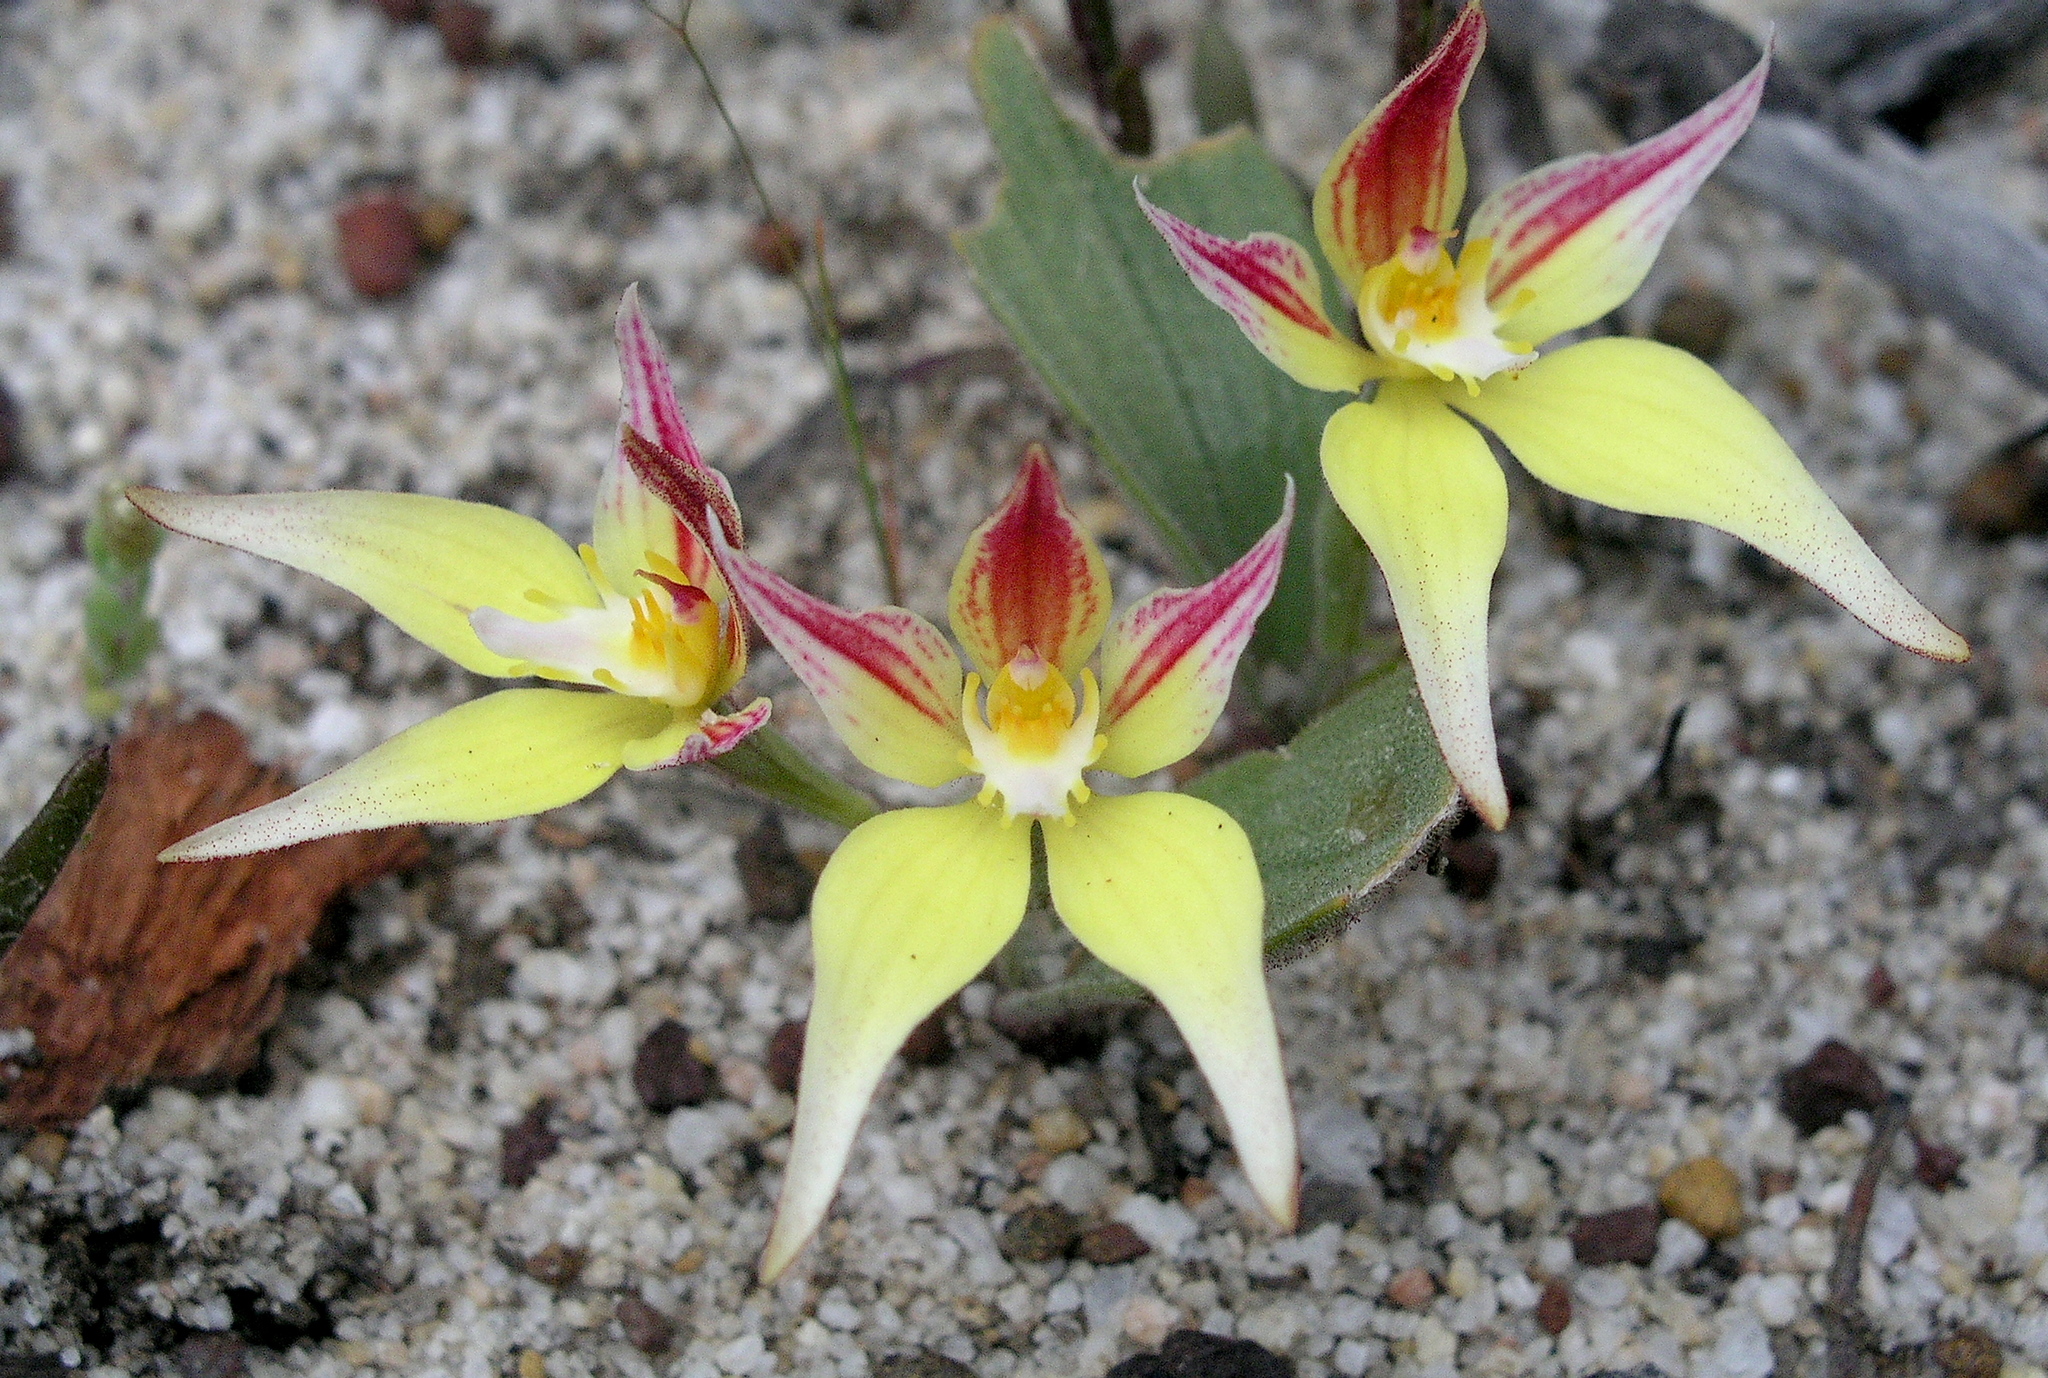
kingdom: Plantae
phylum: Tracheophyta
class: Liliopsida
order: Asparagales
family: Orchidaceae
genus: Caladenia
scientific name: Caladenia flava
